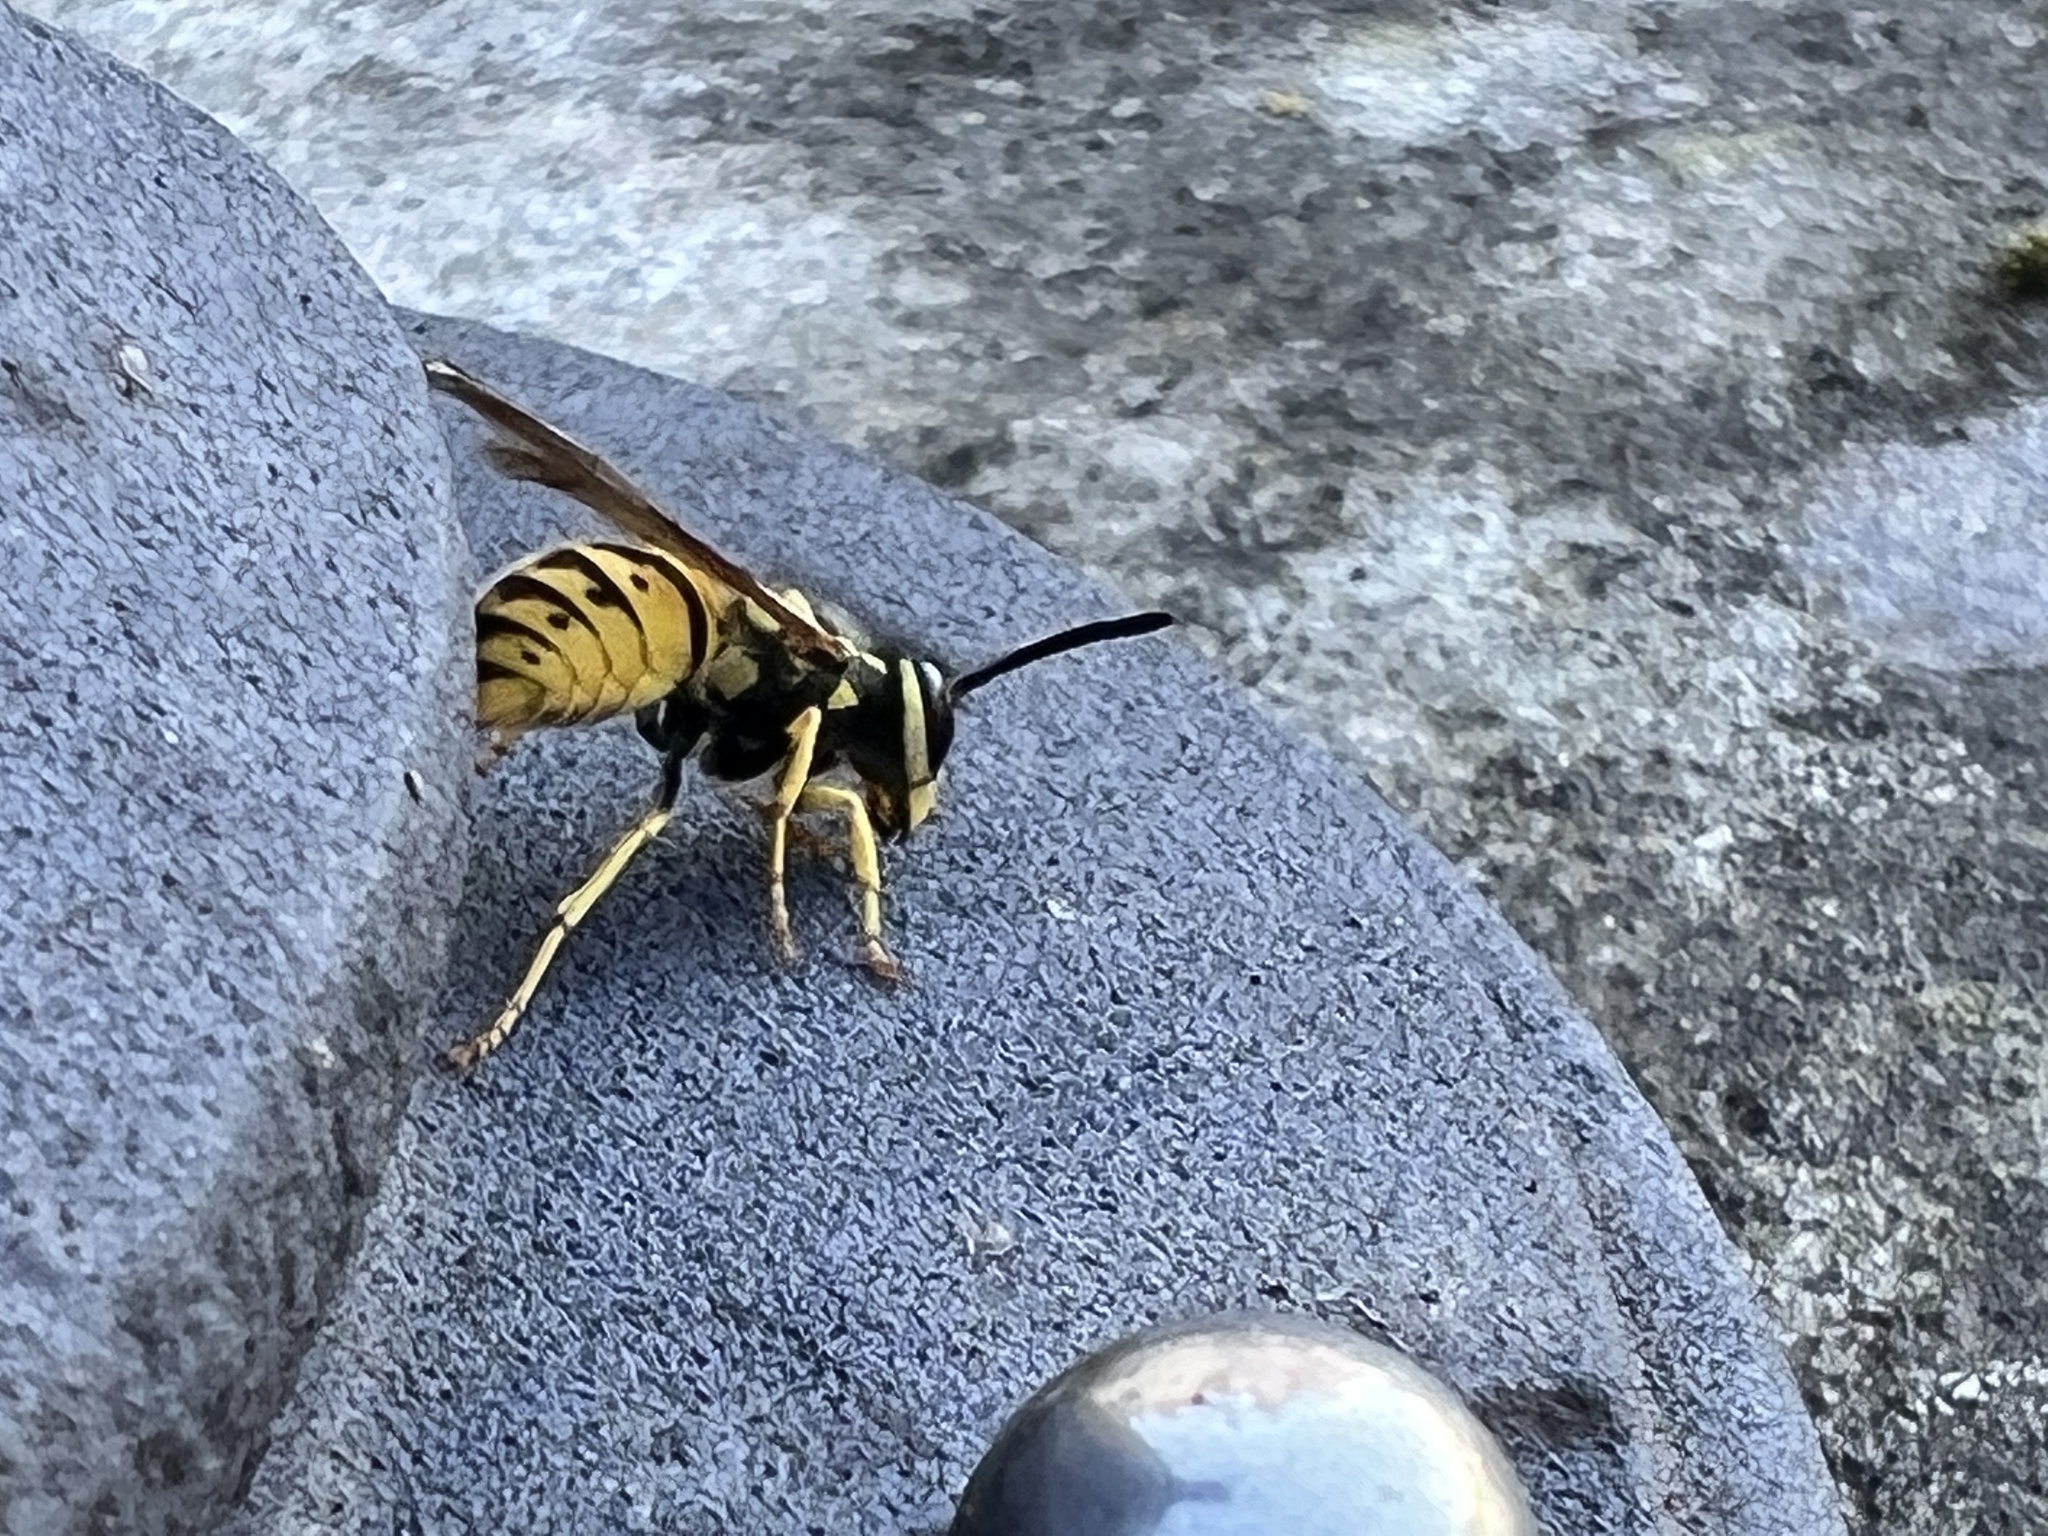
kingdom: Animalia
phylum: Arthropoda
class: Insecta
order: Hymenoptera
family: Vespidae
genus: Vespula
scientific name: Vespula germanica
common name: German wasp
